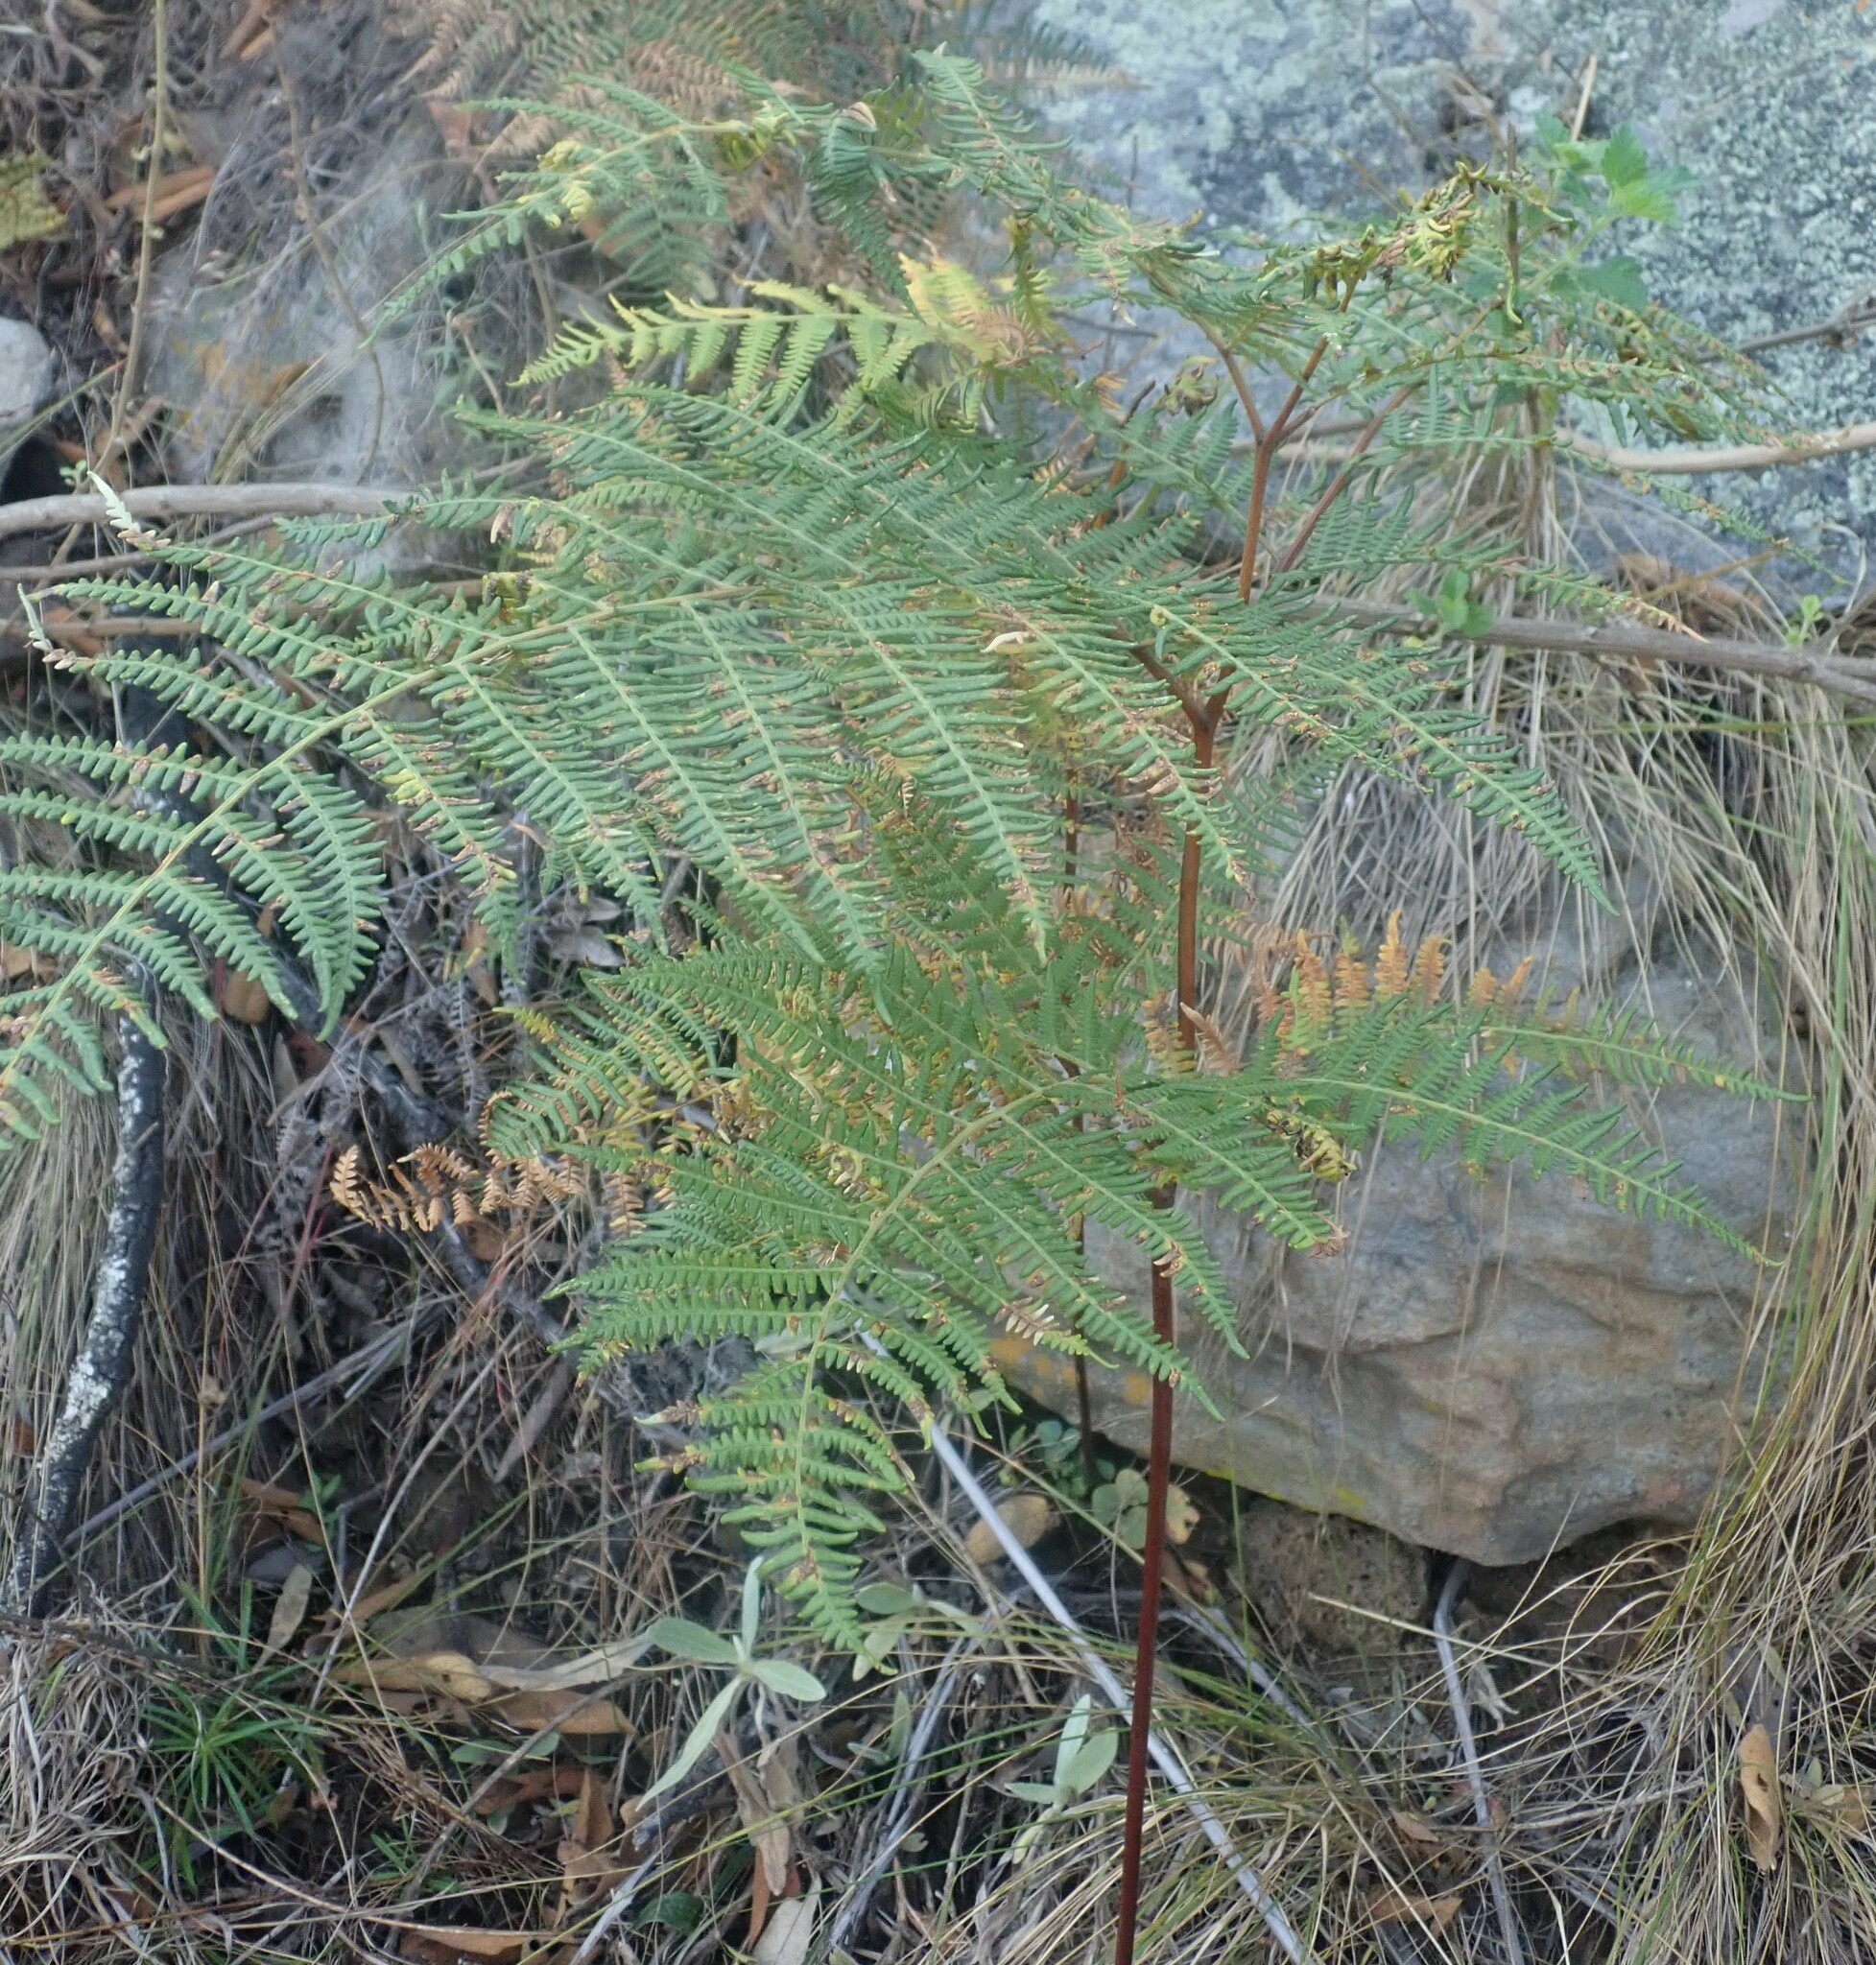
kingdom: Plantae
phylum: Tracheophyta
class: Polypodiopsida
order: Polypodiales
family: Dennstaedtiaceae
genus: Pteridium
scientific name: Pteridium aquilinum
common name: Bracken
